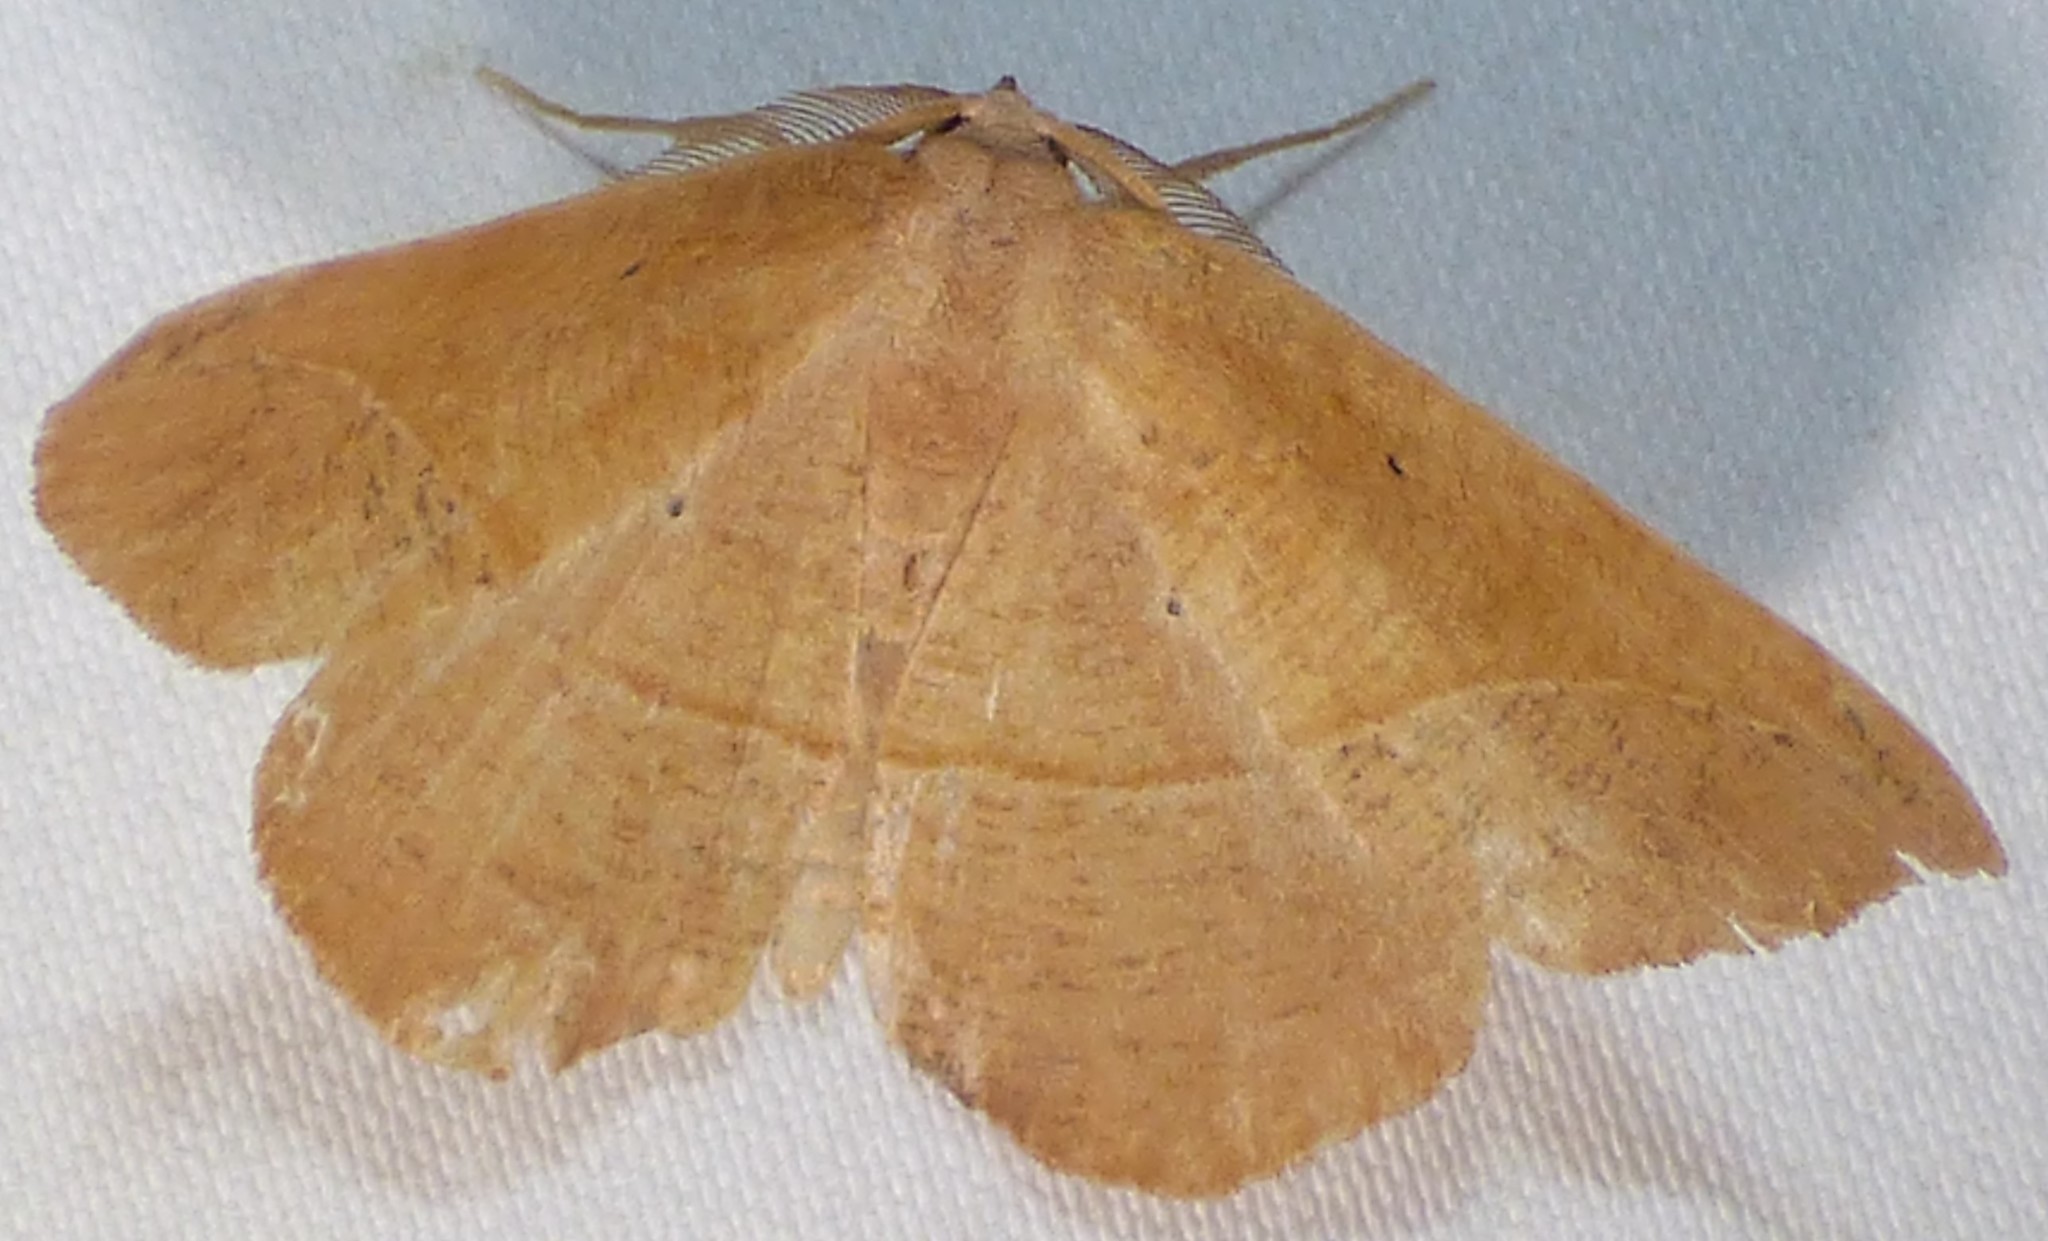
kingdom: Animalia
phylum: Arthropoda
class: Insecta
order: Lepidoptera
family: Geometridae
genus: Patalene
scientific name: Patalene olyzonaria
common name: Juniper geometer moth
